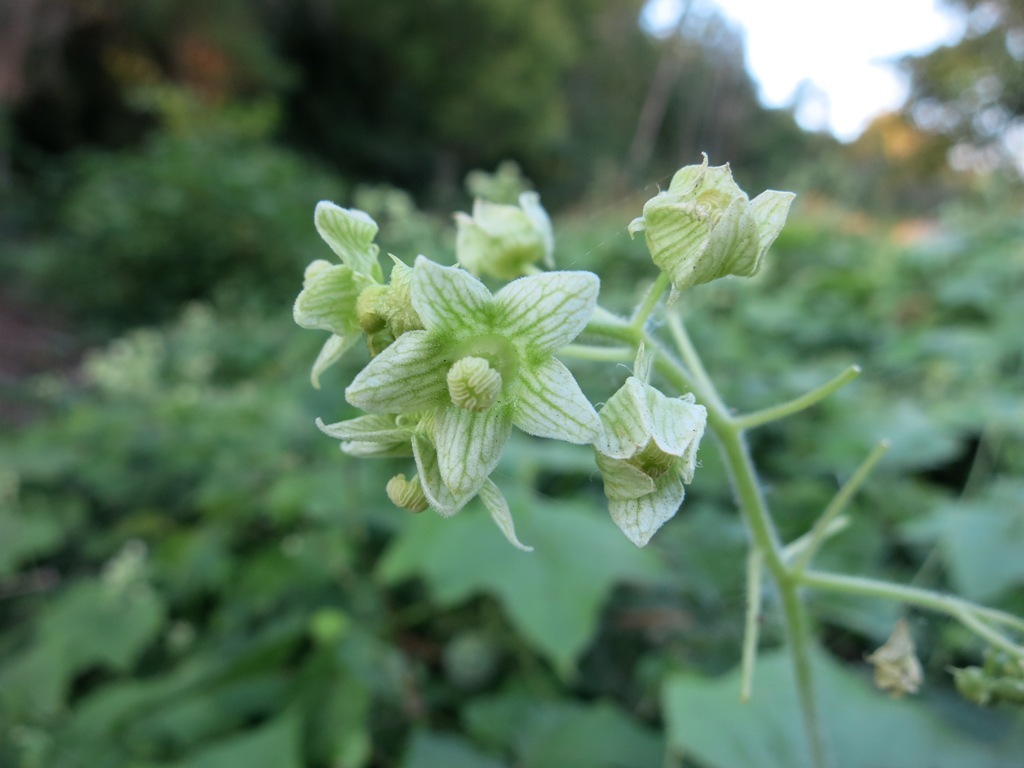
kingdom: Plantae
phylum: Tracheophyta
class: Magnoliopsida
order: Cucurbitales
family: Cucurbitaceae
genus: Sicyos
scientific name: Sicyos angulatus
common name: Angled burr cucumber
